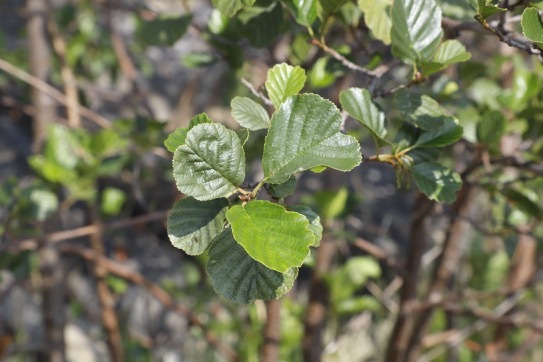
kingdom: Plantae
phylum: Tracheophyta
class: Magnoliopsida
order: Fagales
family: Betulaceae
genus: Alnus
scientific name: Alnus glutinosa
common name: Black alder
